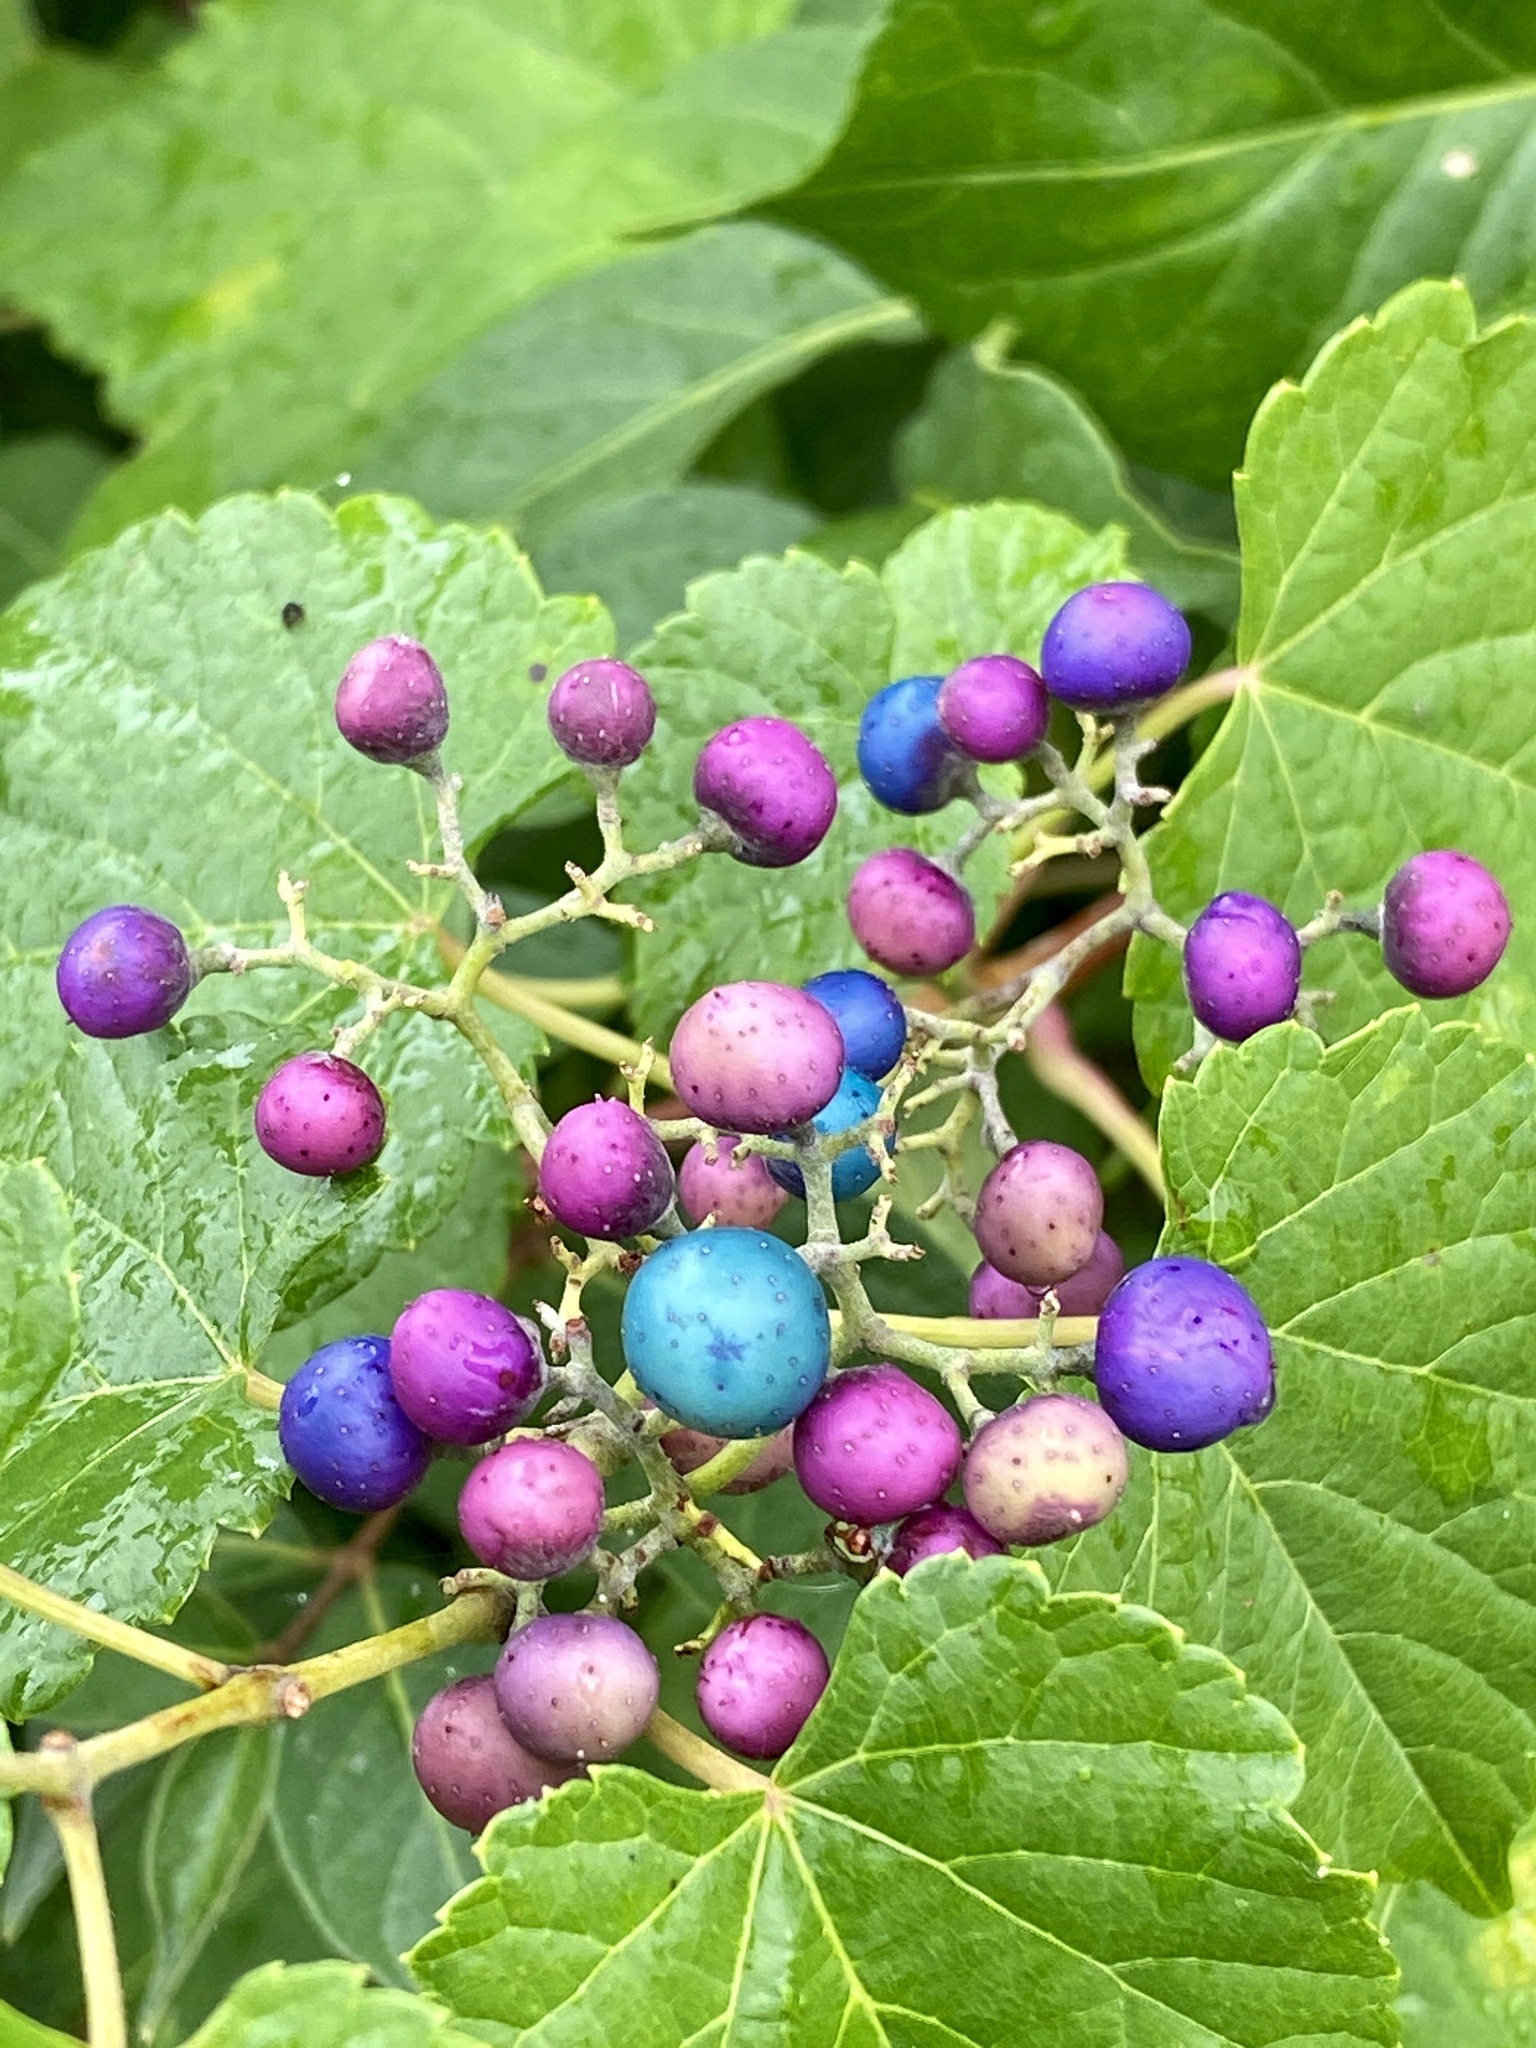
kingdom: Plantae
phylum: Tracheophyta
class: Magnoliopsida
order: Vitales
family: Vitaceae
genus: Ampelopsis
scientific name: Ampelopsis glandulosa
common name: Amur peppervine
